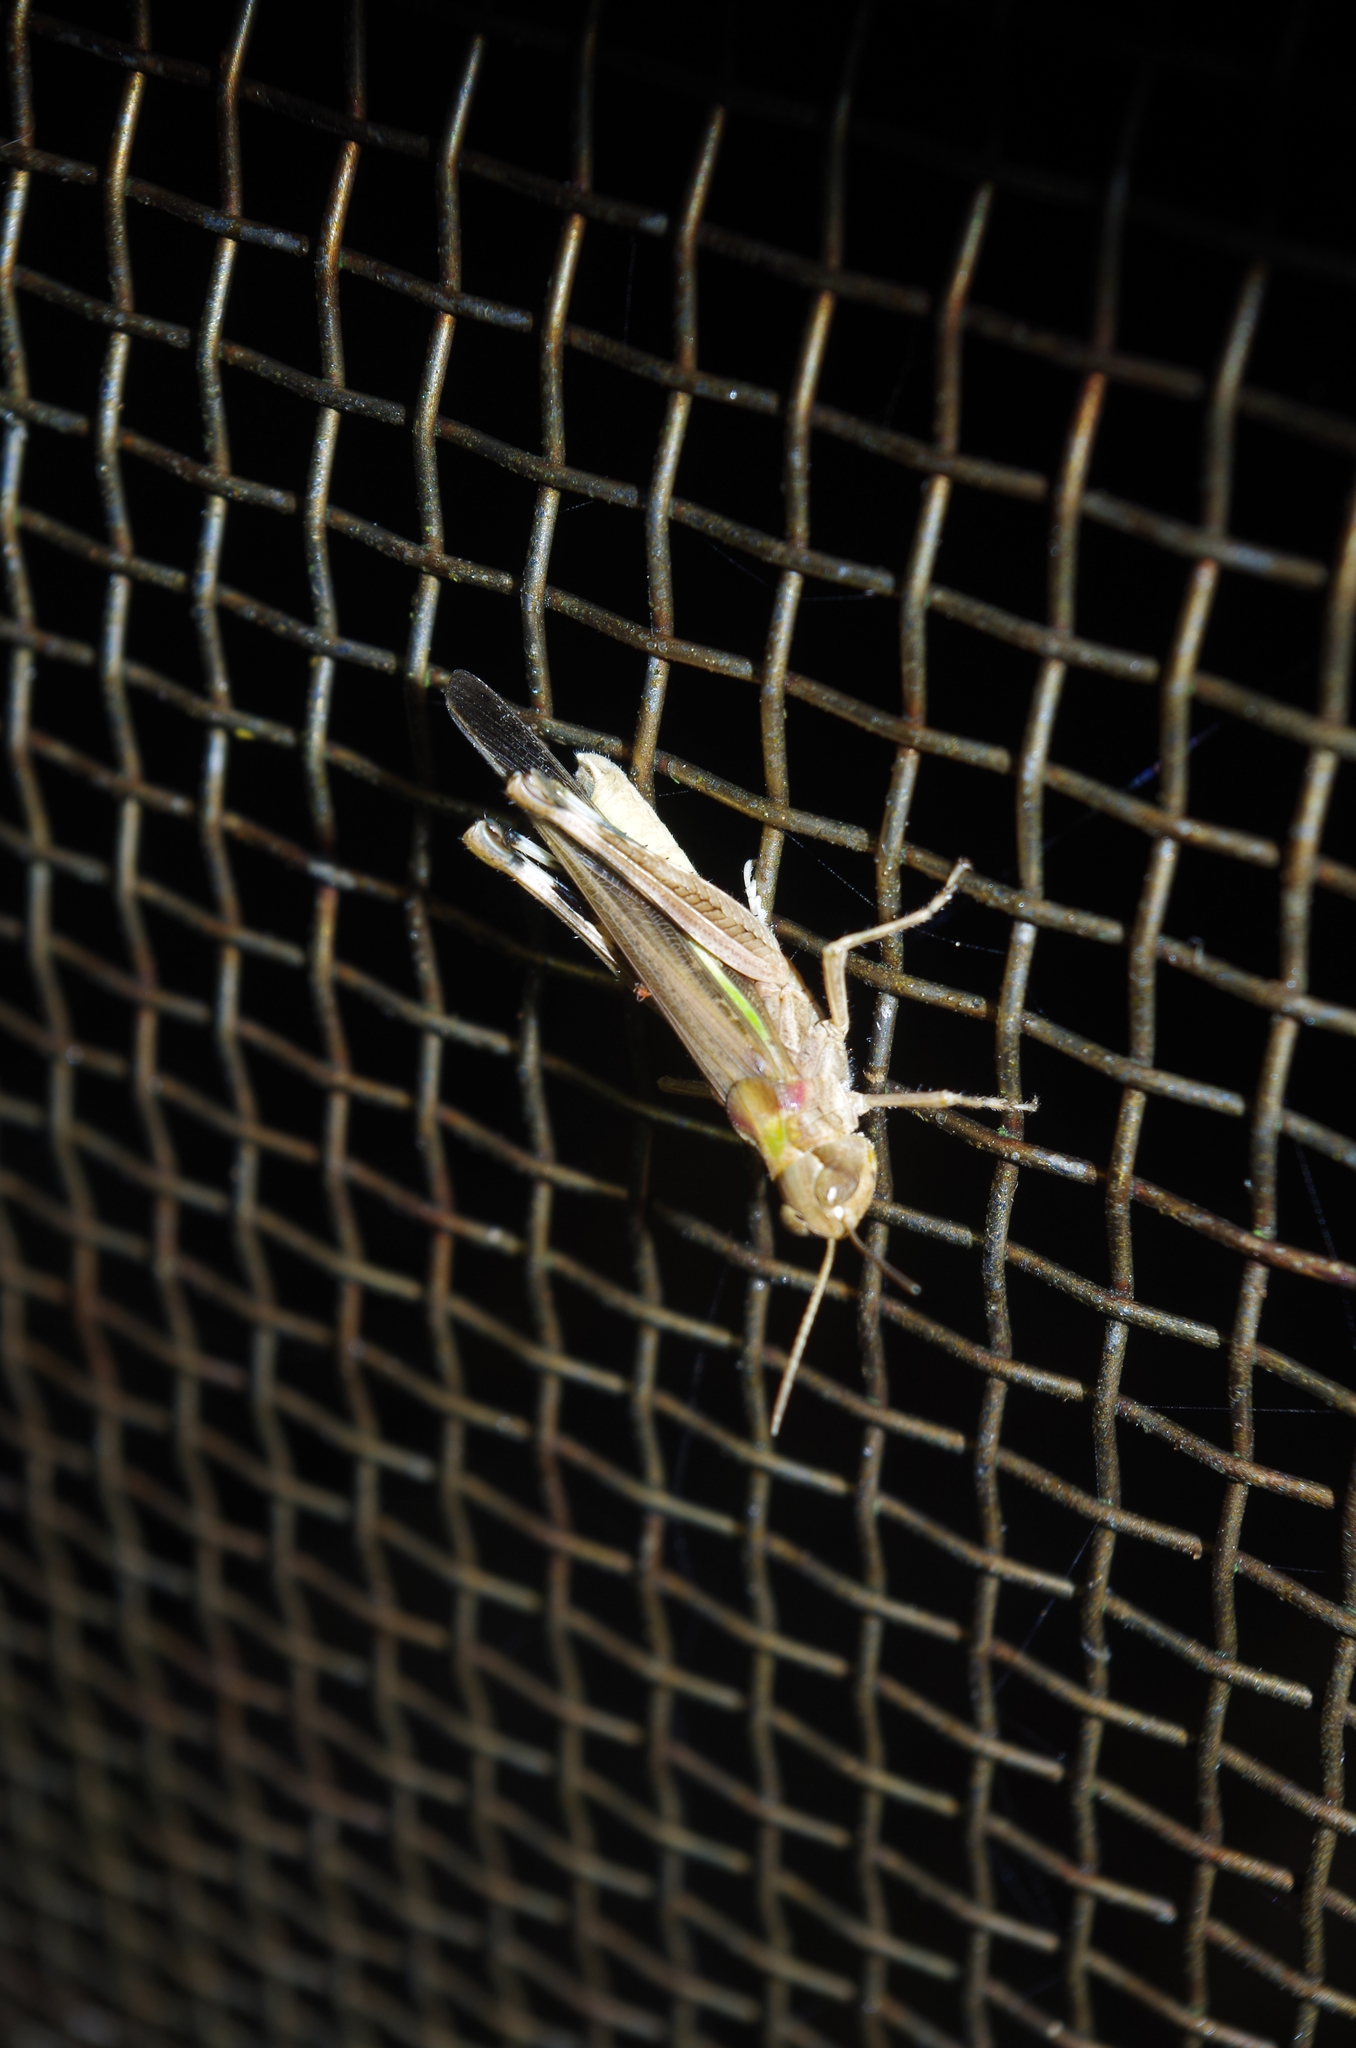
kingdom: Animalia
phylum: Arthropoda
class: Insecta
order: Orthoptera
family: Acrididae
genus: Aiolopus
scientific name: Aiolopus thalassinus
